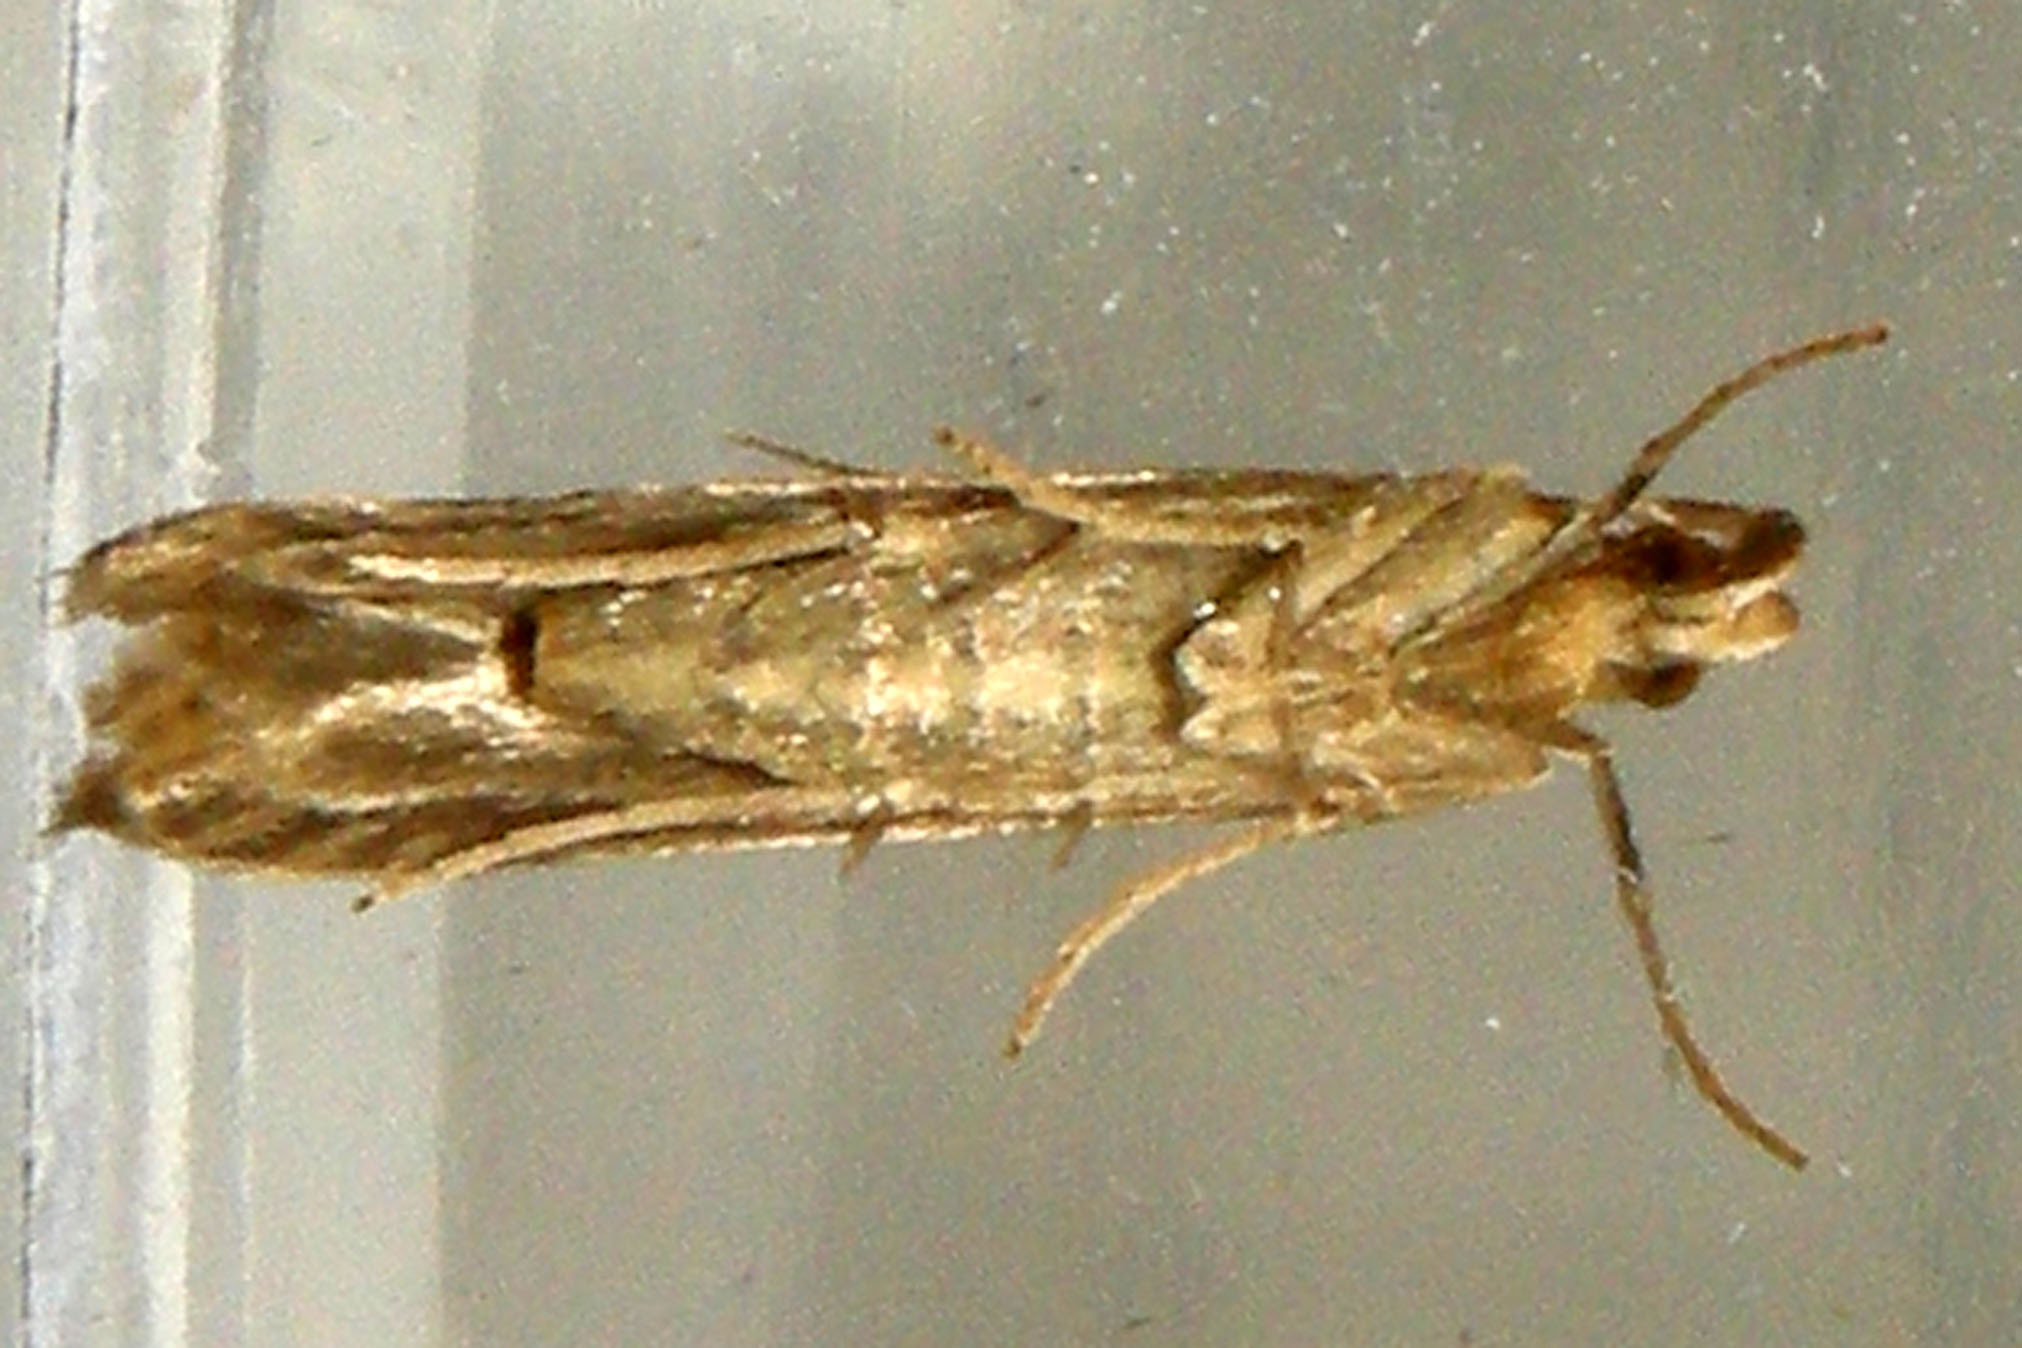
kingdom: Animalia
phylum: Arthropoda
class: Insecta
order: Lepidoptera
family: Gelechiidae
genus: Metzneria
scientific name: Metzneria lappella
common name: Burdock neb
